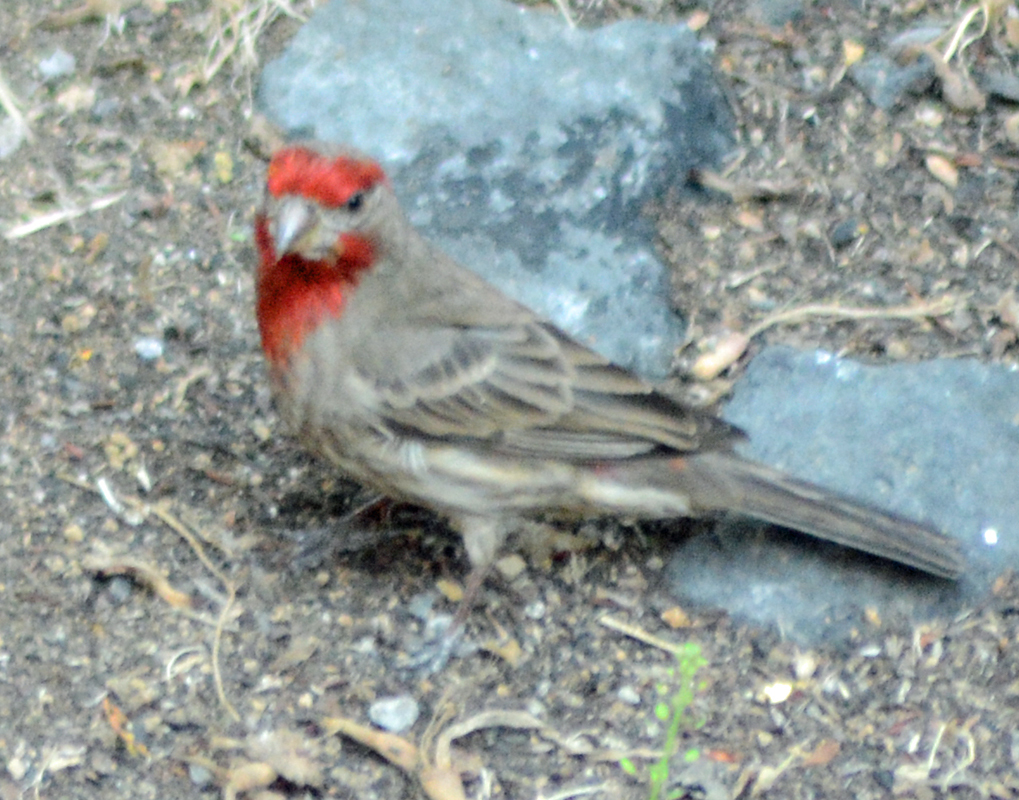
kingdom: Animalia
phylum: Chordata
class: Aves
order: Passeriformes
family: Fringillidae
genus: Haemorhous
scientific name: Haemorhous mexicanus
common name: House finch
